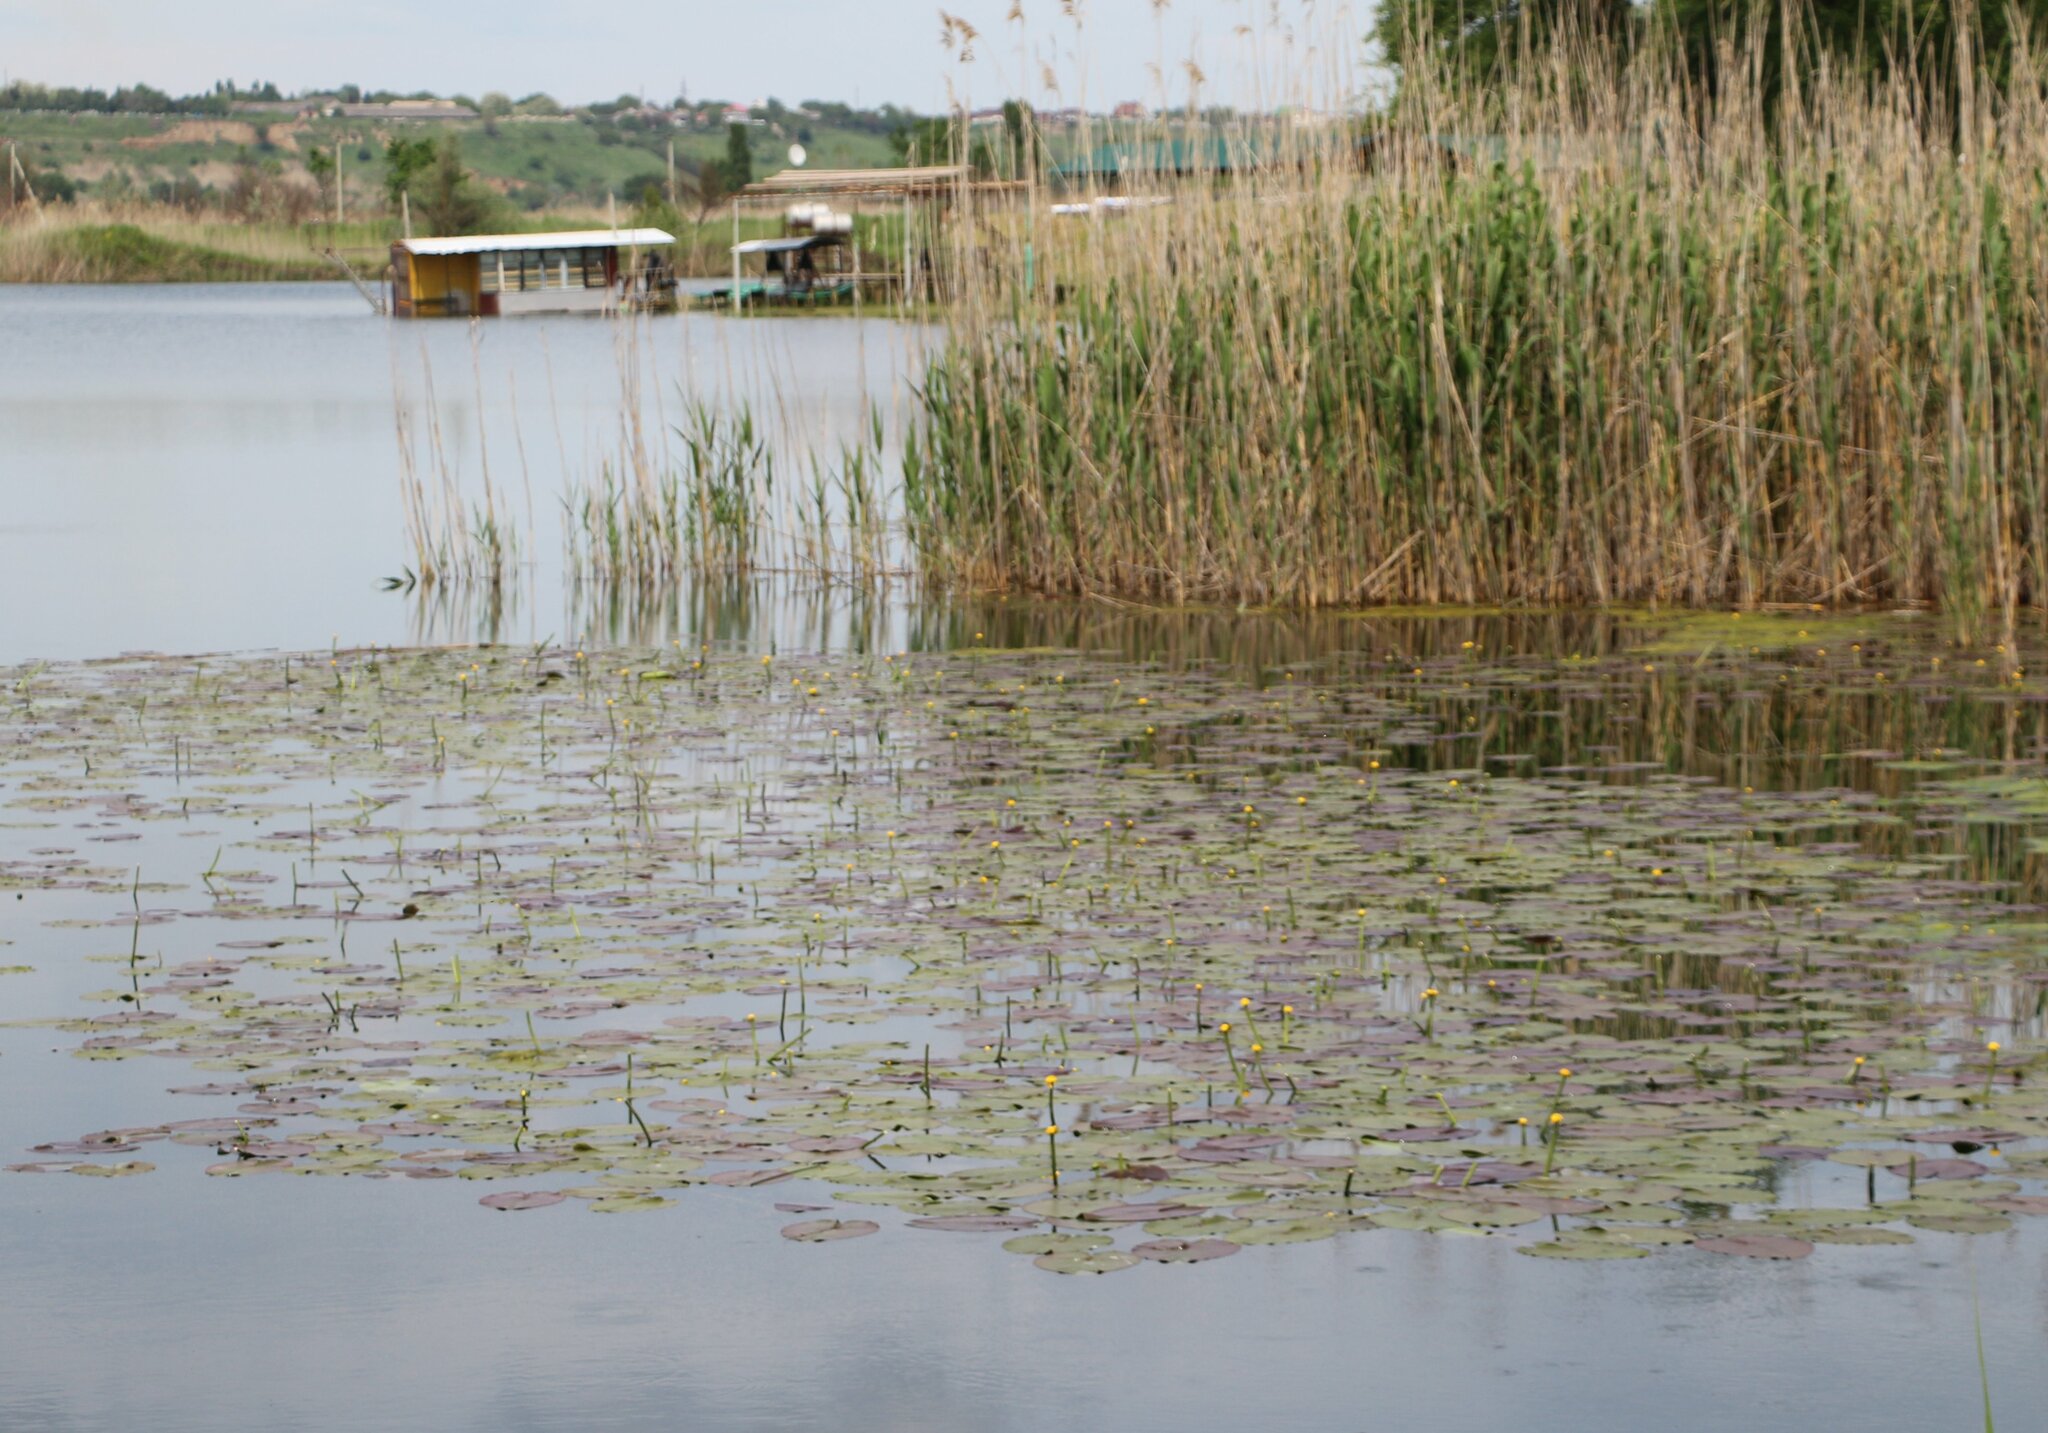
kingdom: Plantae
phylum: Tracheophyta
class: Magnoliopsida
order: Nymphaeales
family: Nymphaeaceae
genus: Nuphar
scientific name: Nuphar lutea
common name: Yellow water-lily
